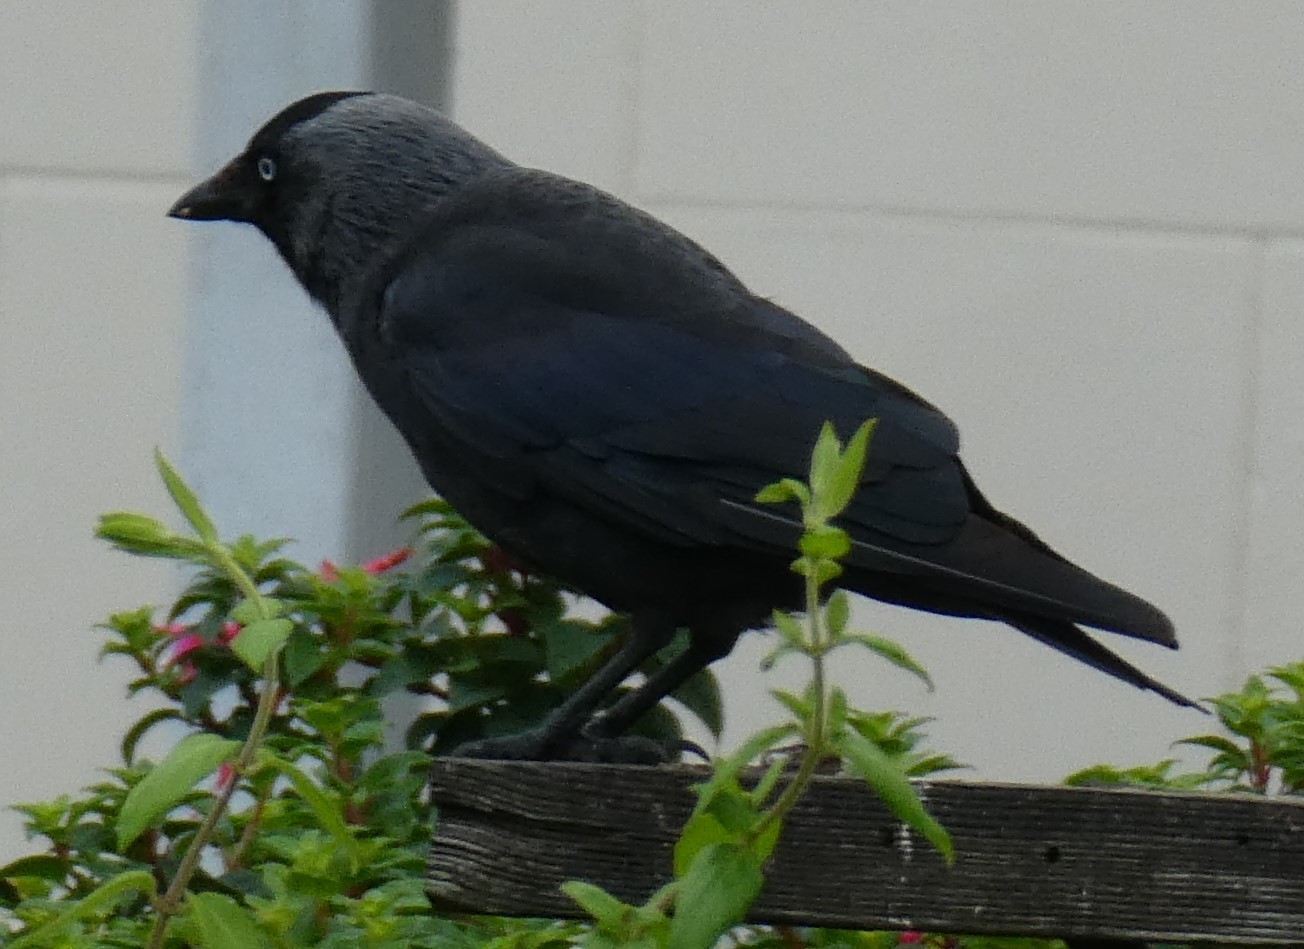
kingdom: Animalia
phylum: Chordata
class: Aves
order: Passeriformes
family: Corvidae
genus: Coloeus
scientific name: Coloeus monedula
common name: Western jackdaw
